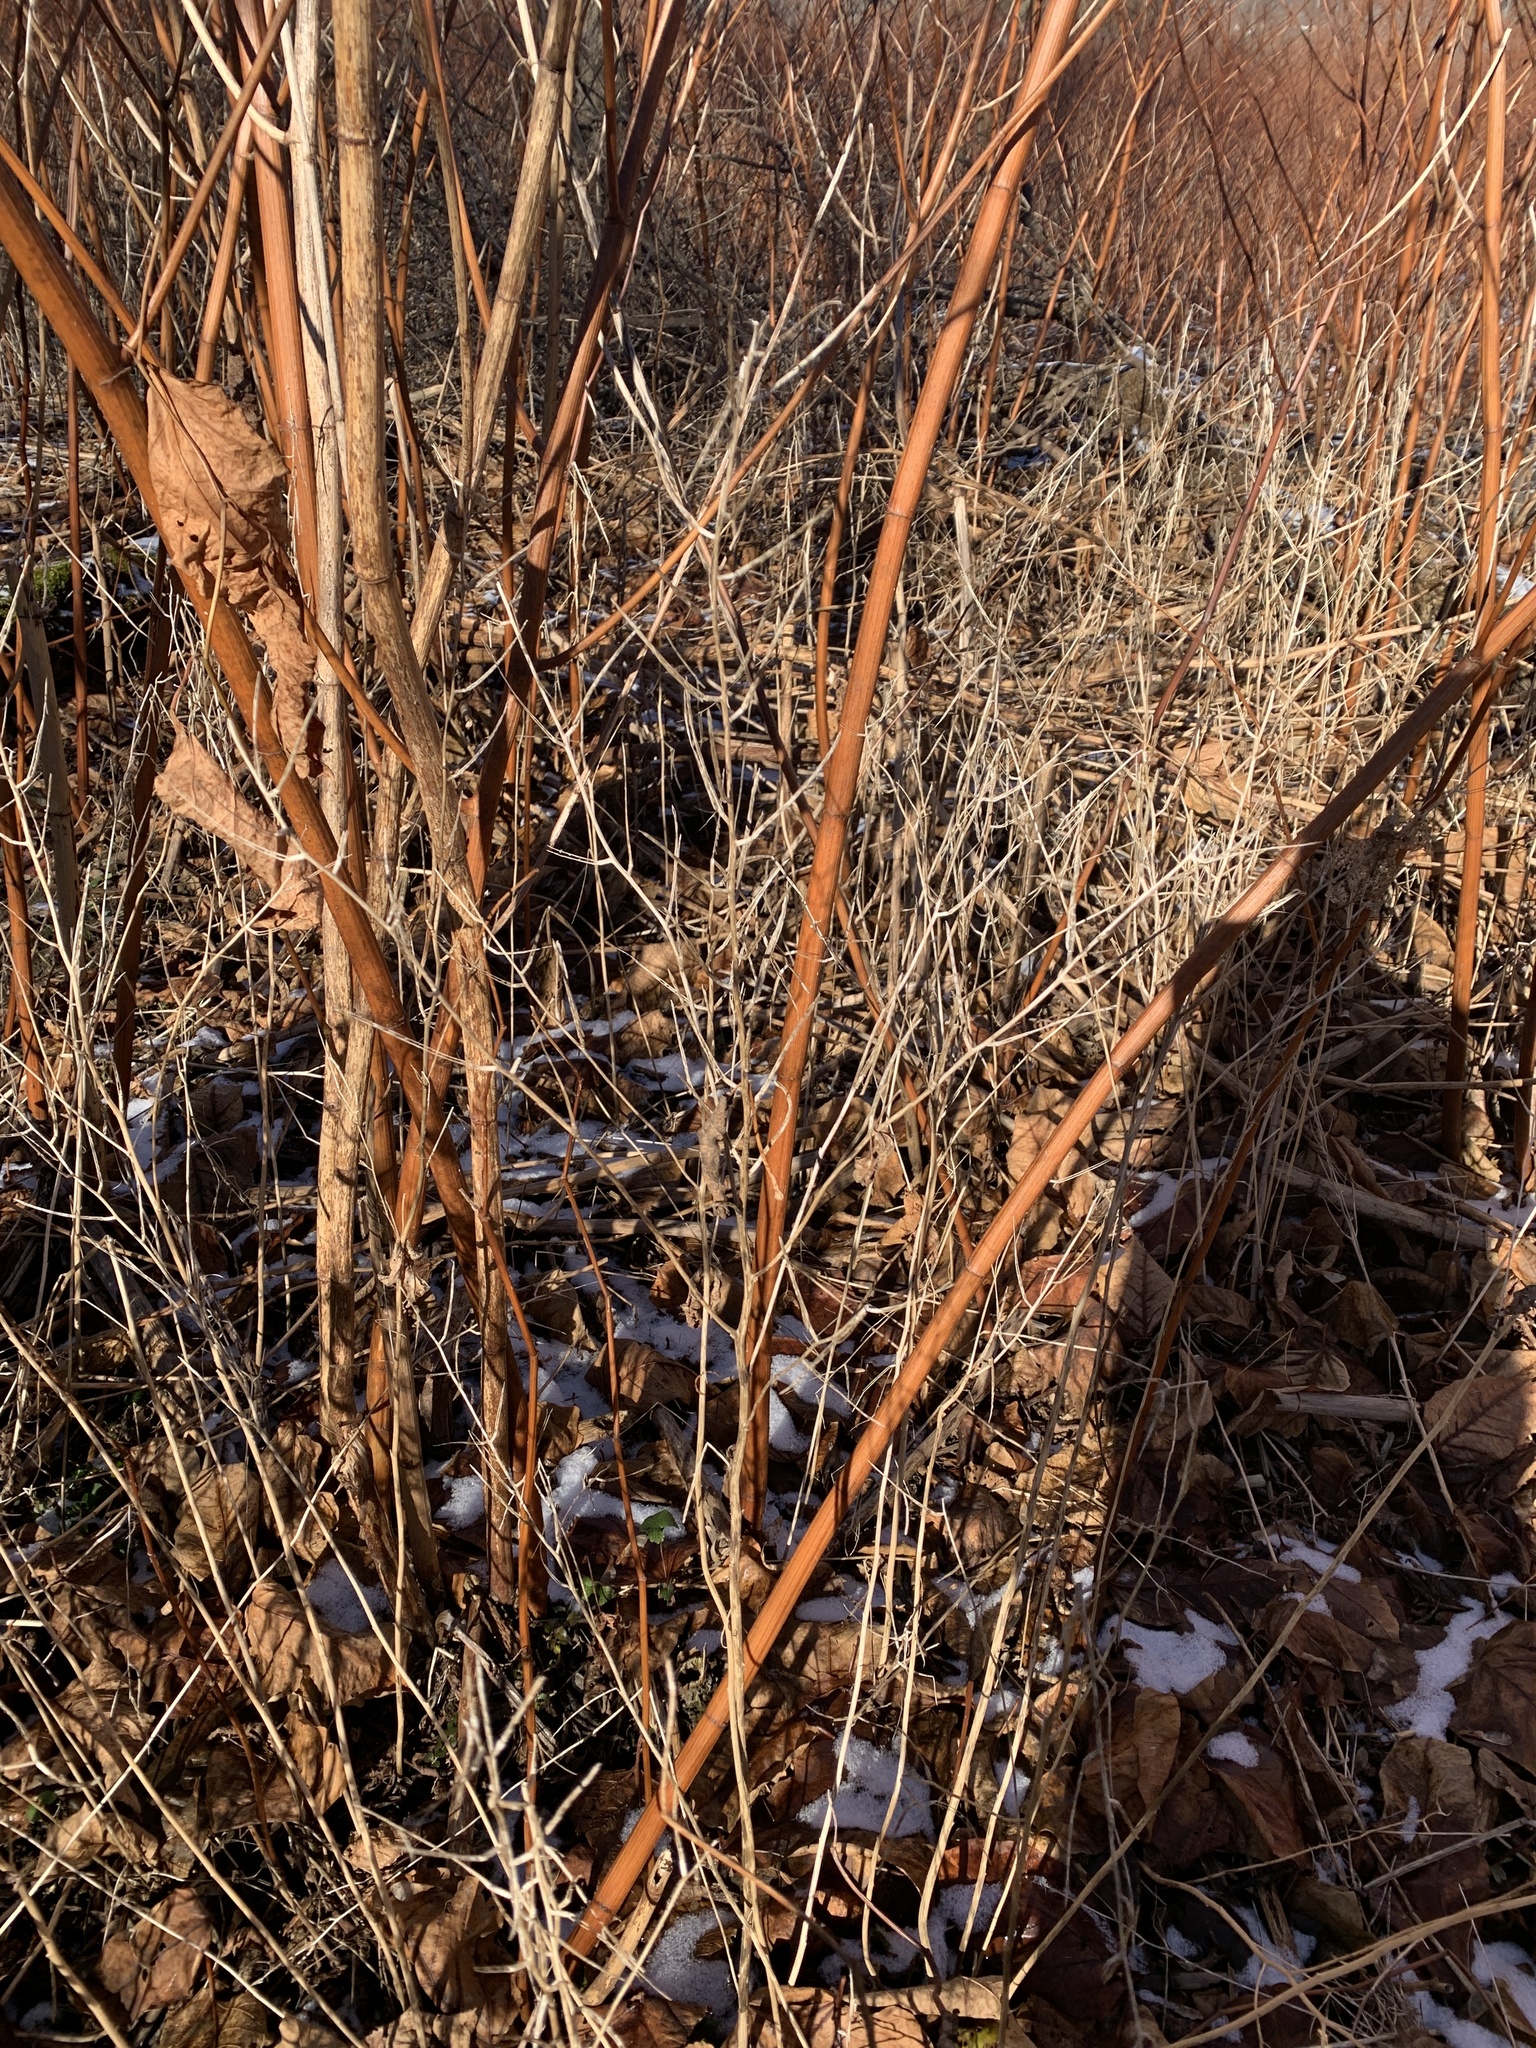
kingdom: Plantae
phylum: Tracheophyta
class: Magnoliopsida
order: Brassicales
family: Brassicaceae
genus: Alliaria
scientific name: Alliaria petiolata
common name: Garlic mustard
